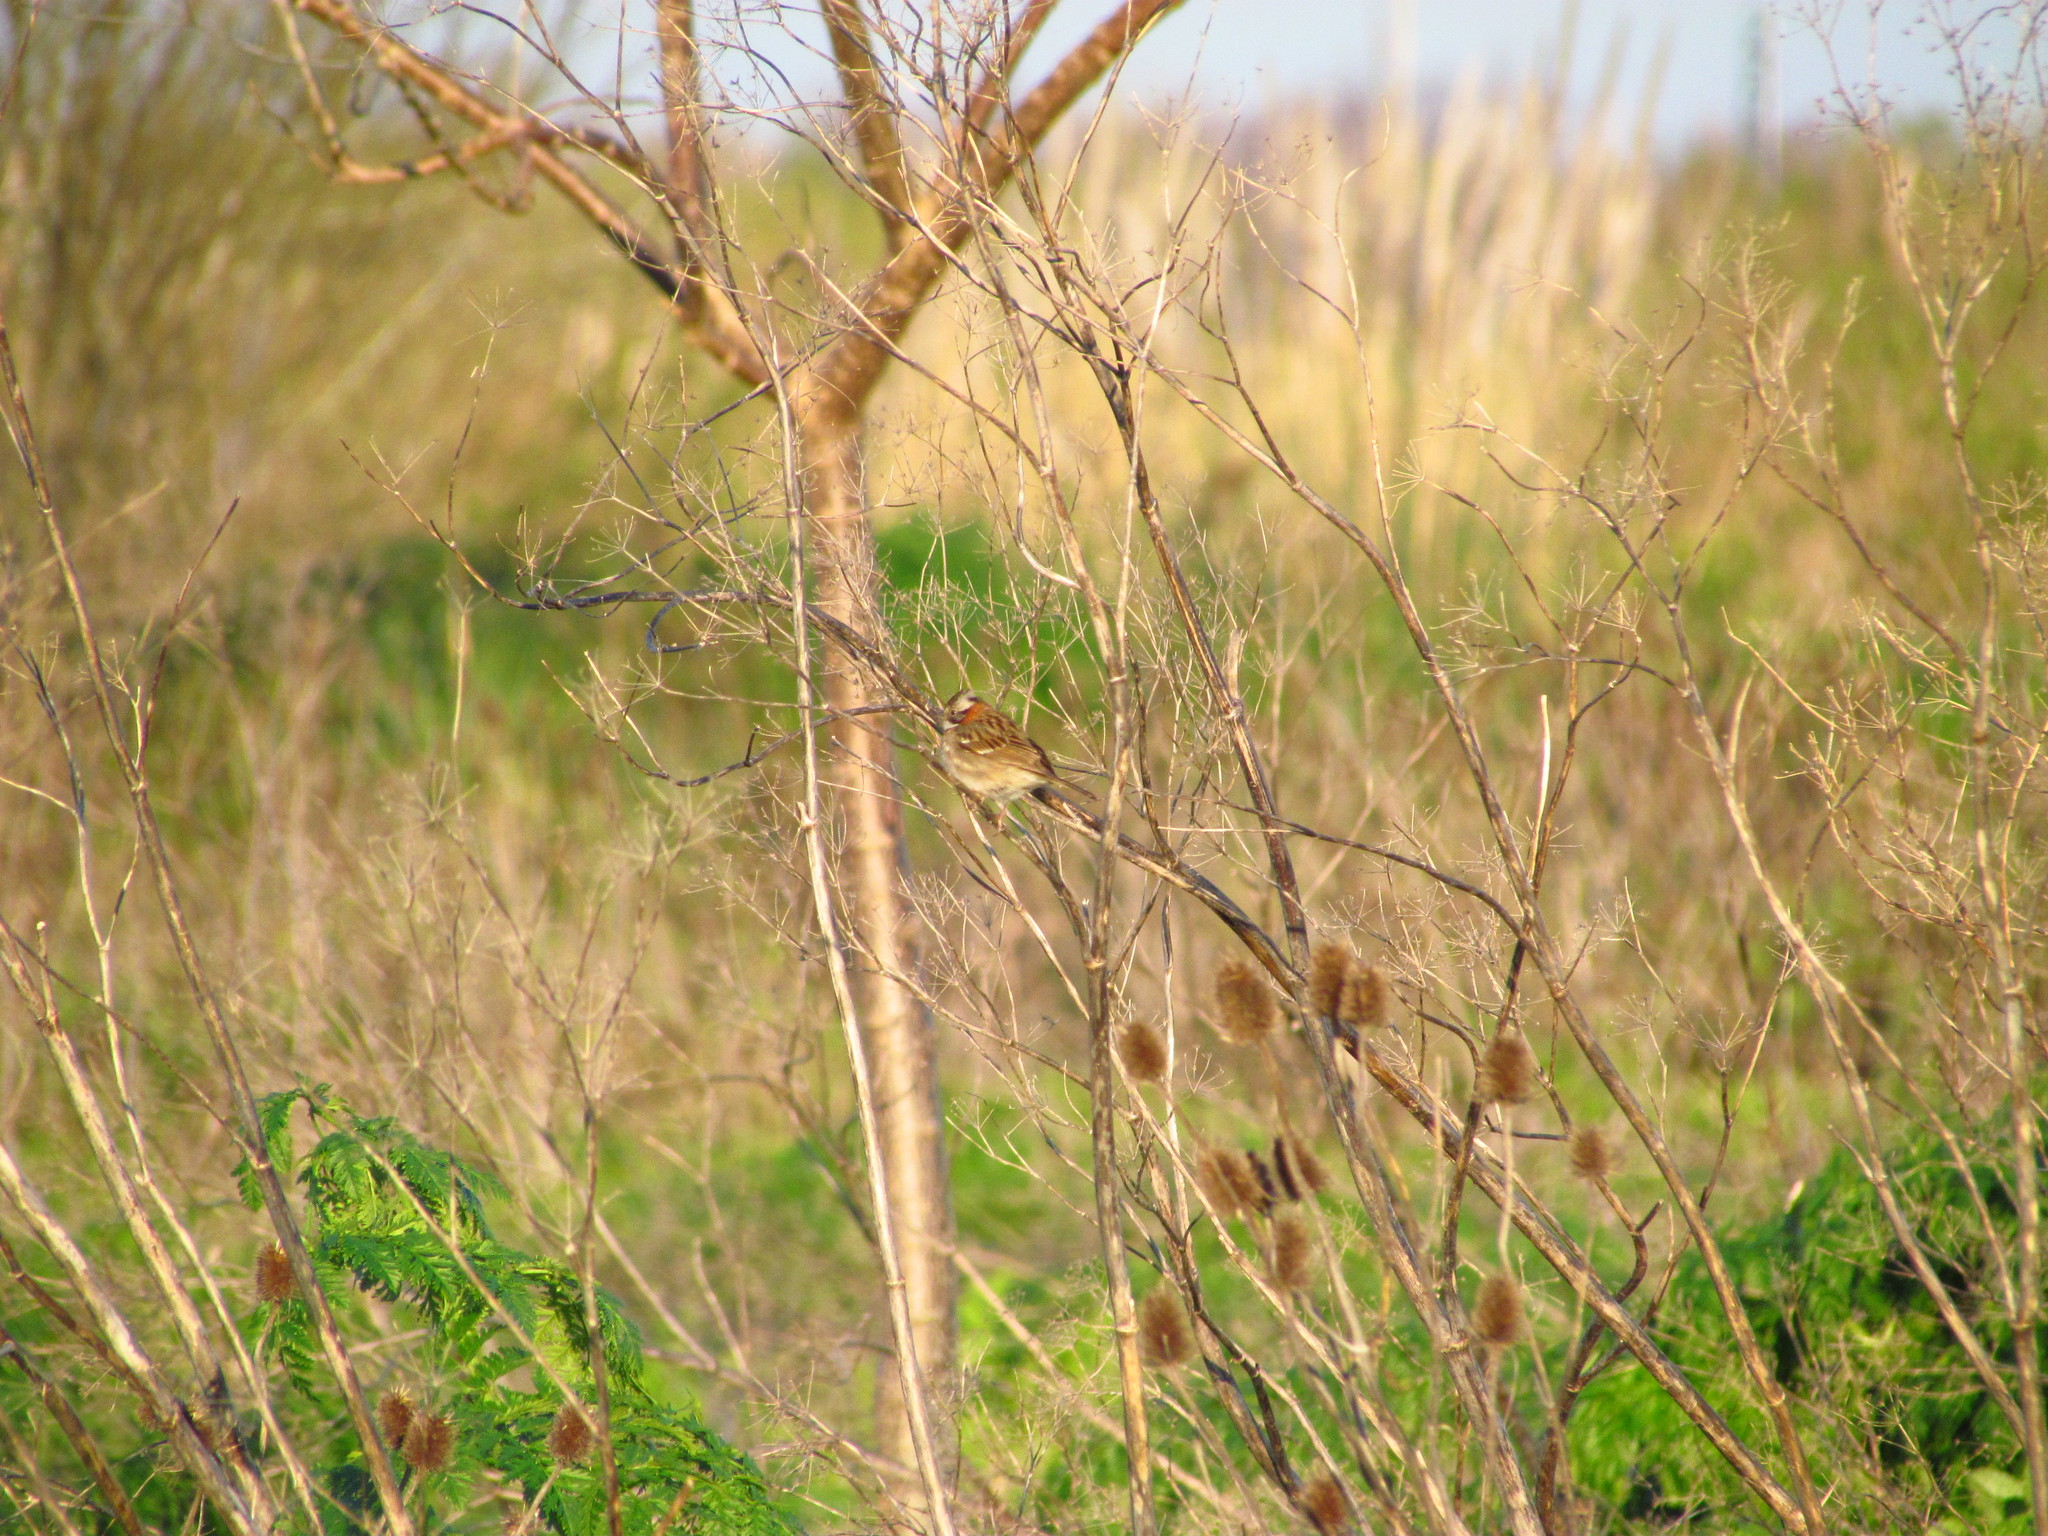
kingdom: Animalia
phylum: Chordata
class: Aves
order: Passeriformes
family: Passerellidae
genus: Zonotrichia
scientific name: Zonotrichia capensis
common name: Rufous-collared sparrow
